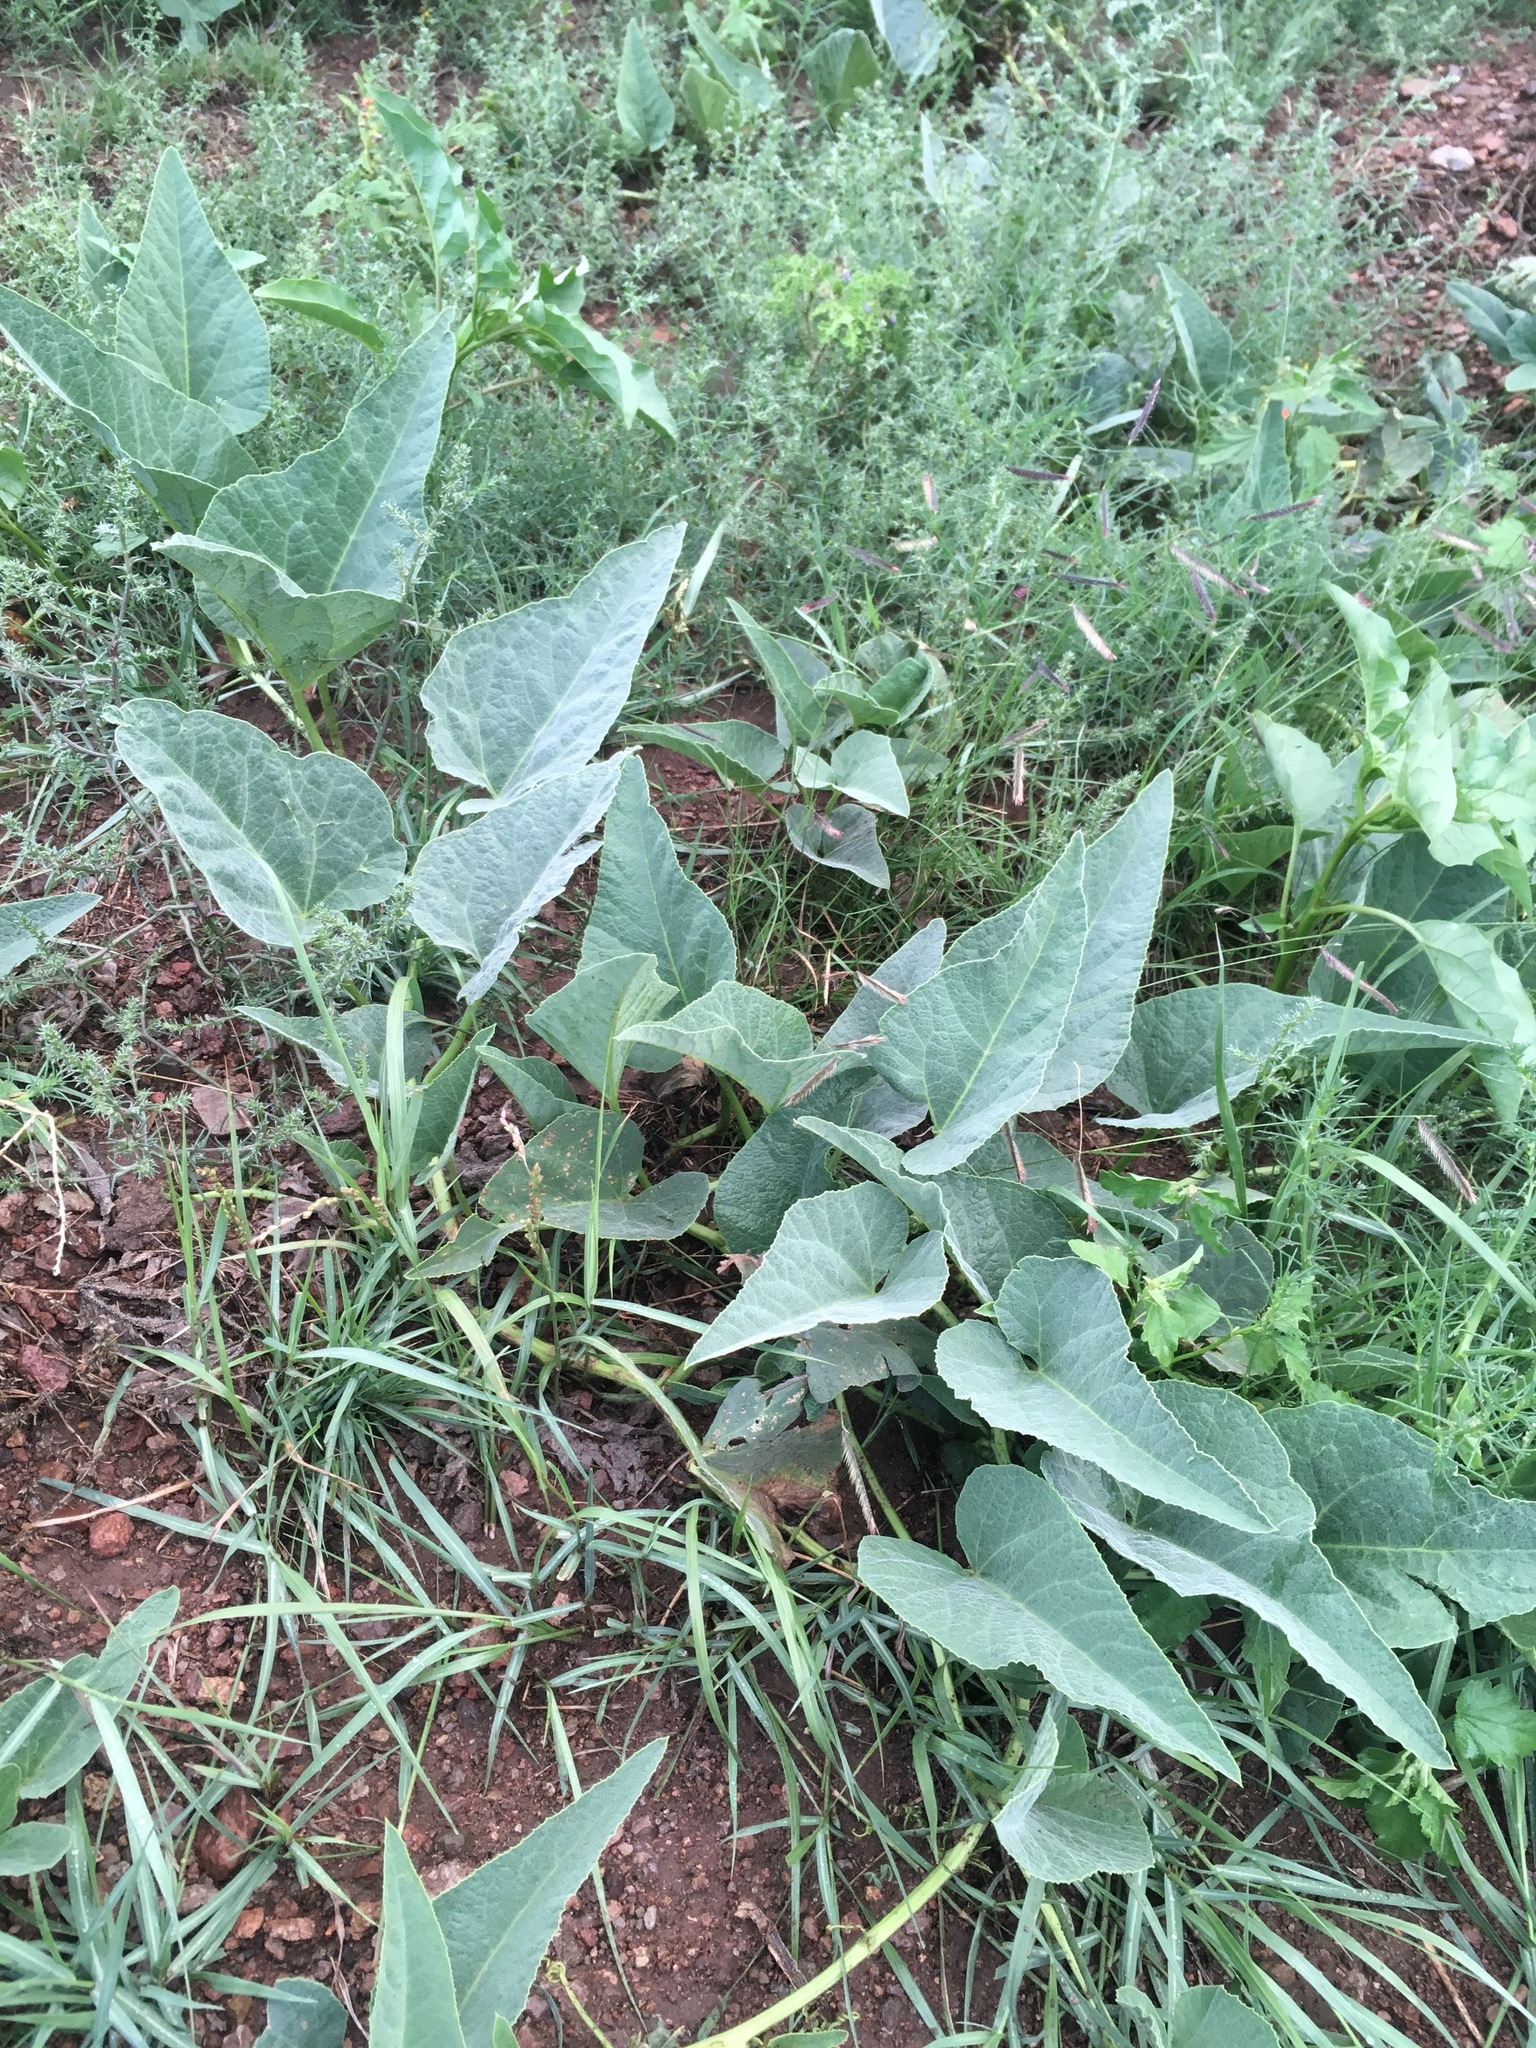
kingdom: Plantae
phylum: Tracheophyta
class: Magnoliopsida
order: Cucurbitales
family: Cucurbitaceae
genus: Cucurbita
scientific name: Cucurbita foetidissima
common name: Buffalo gourd
